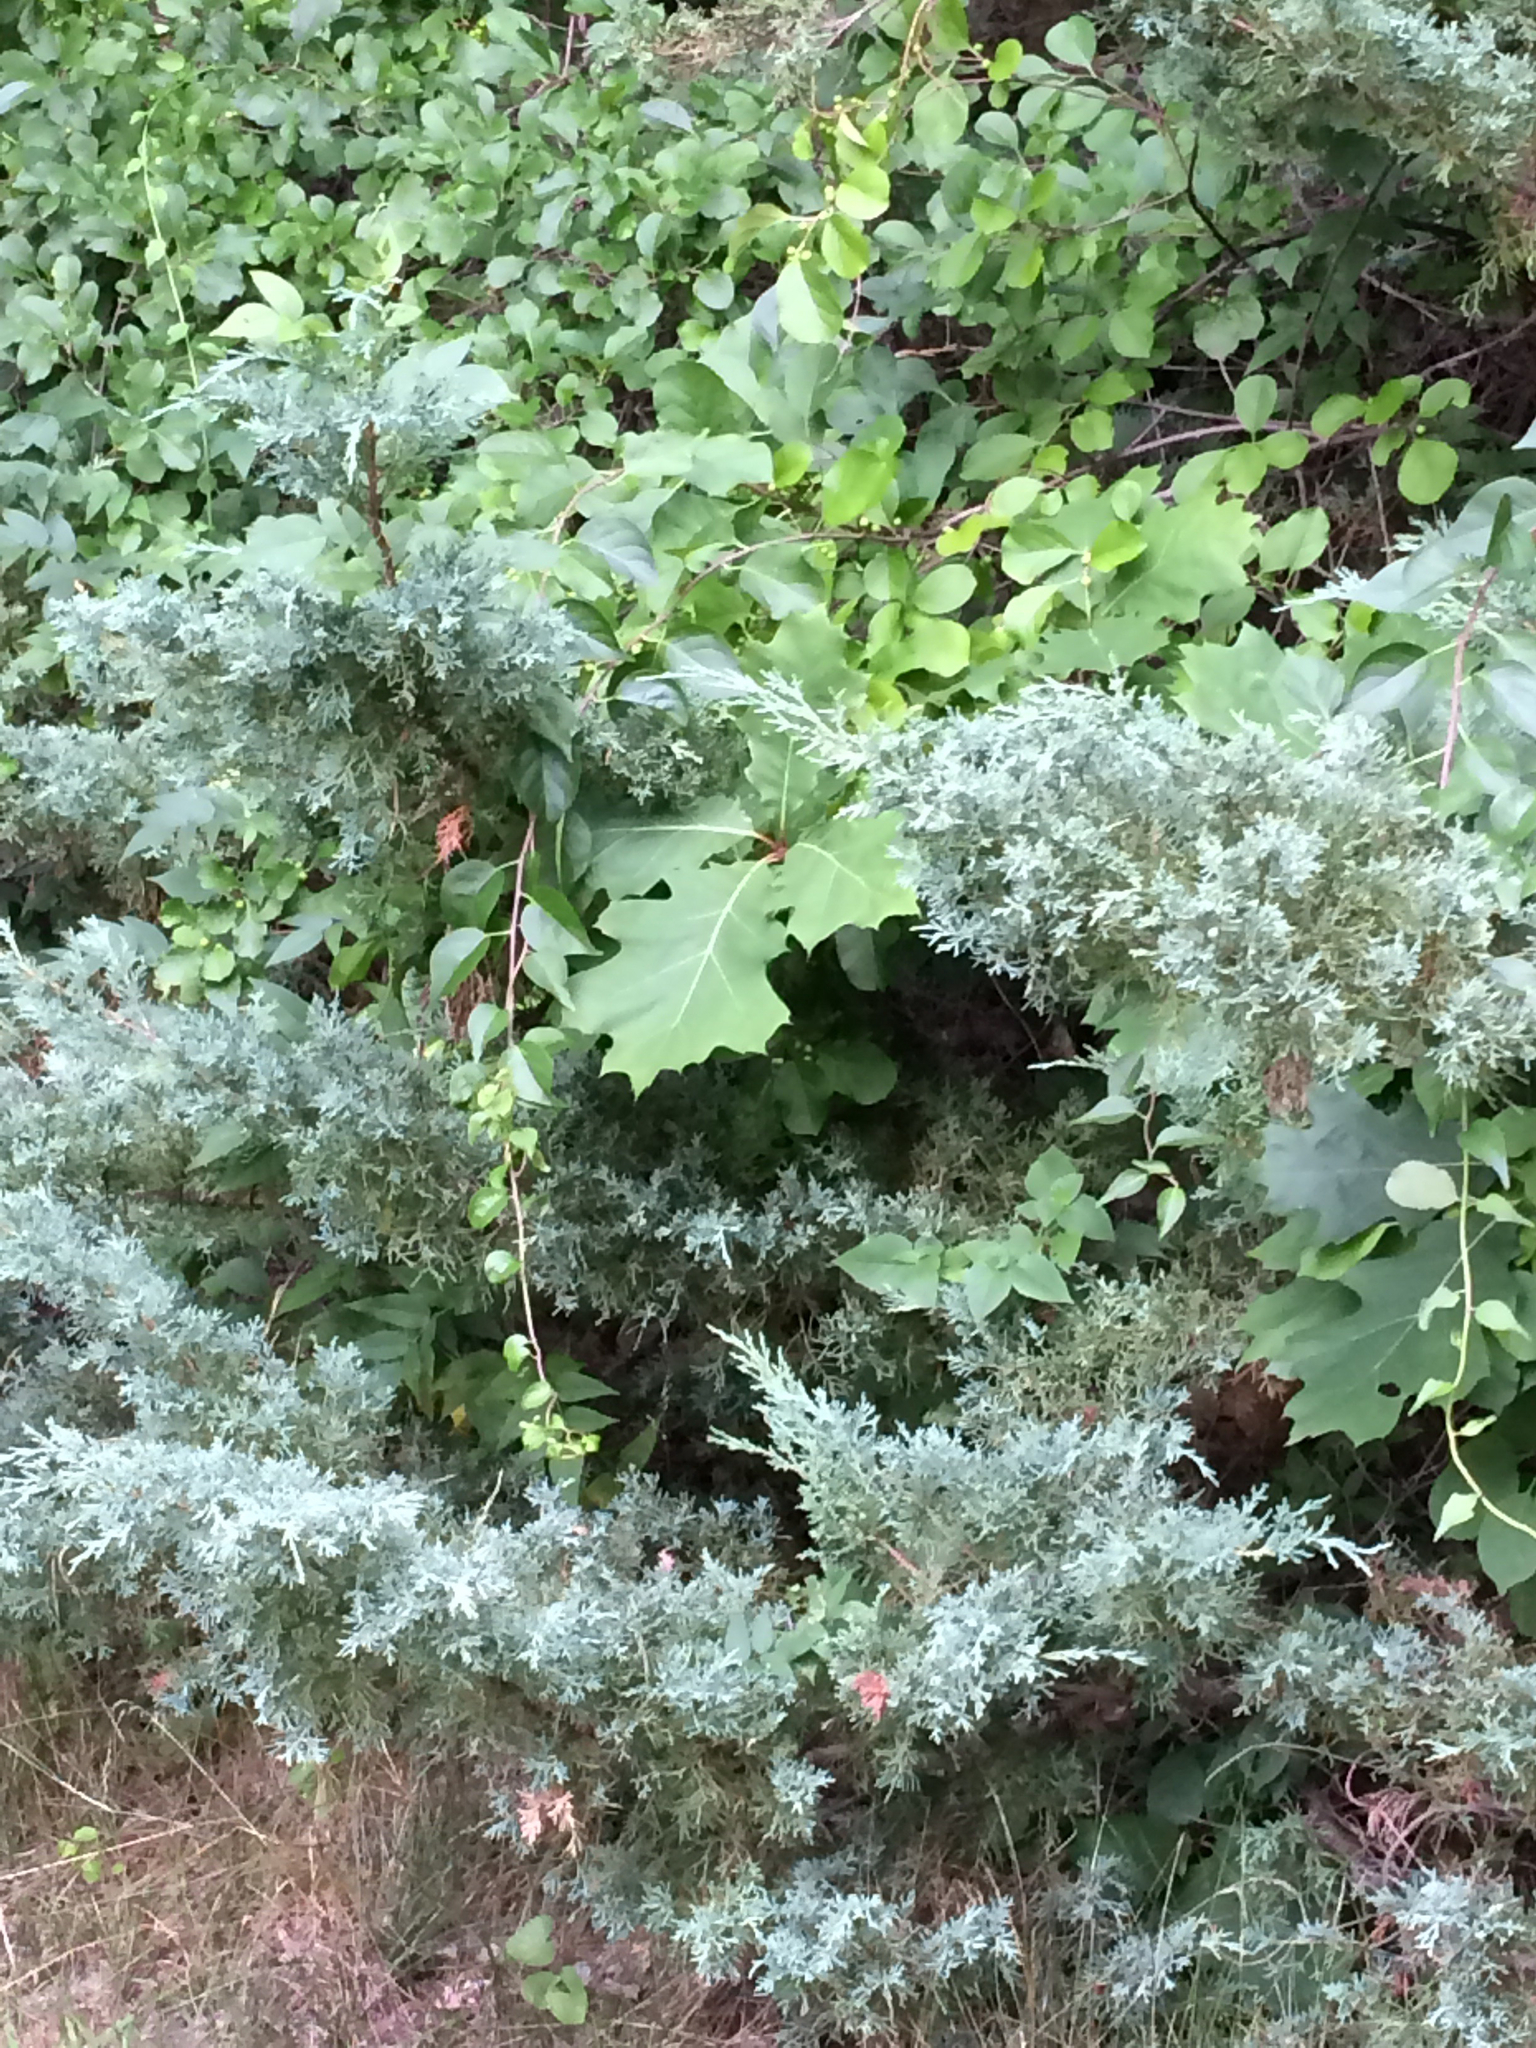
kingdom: Plantae
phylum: Tracheophyta
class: Magnoliopsida
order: Fagales
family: Fagaceae
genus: Quercus
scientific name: Quercus rubra
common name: Red oak
